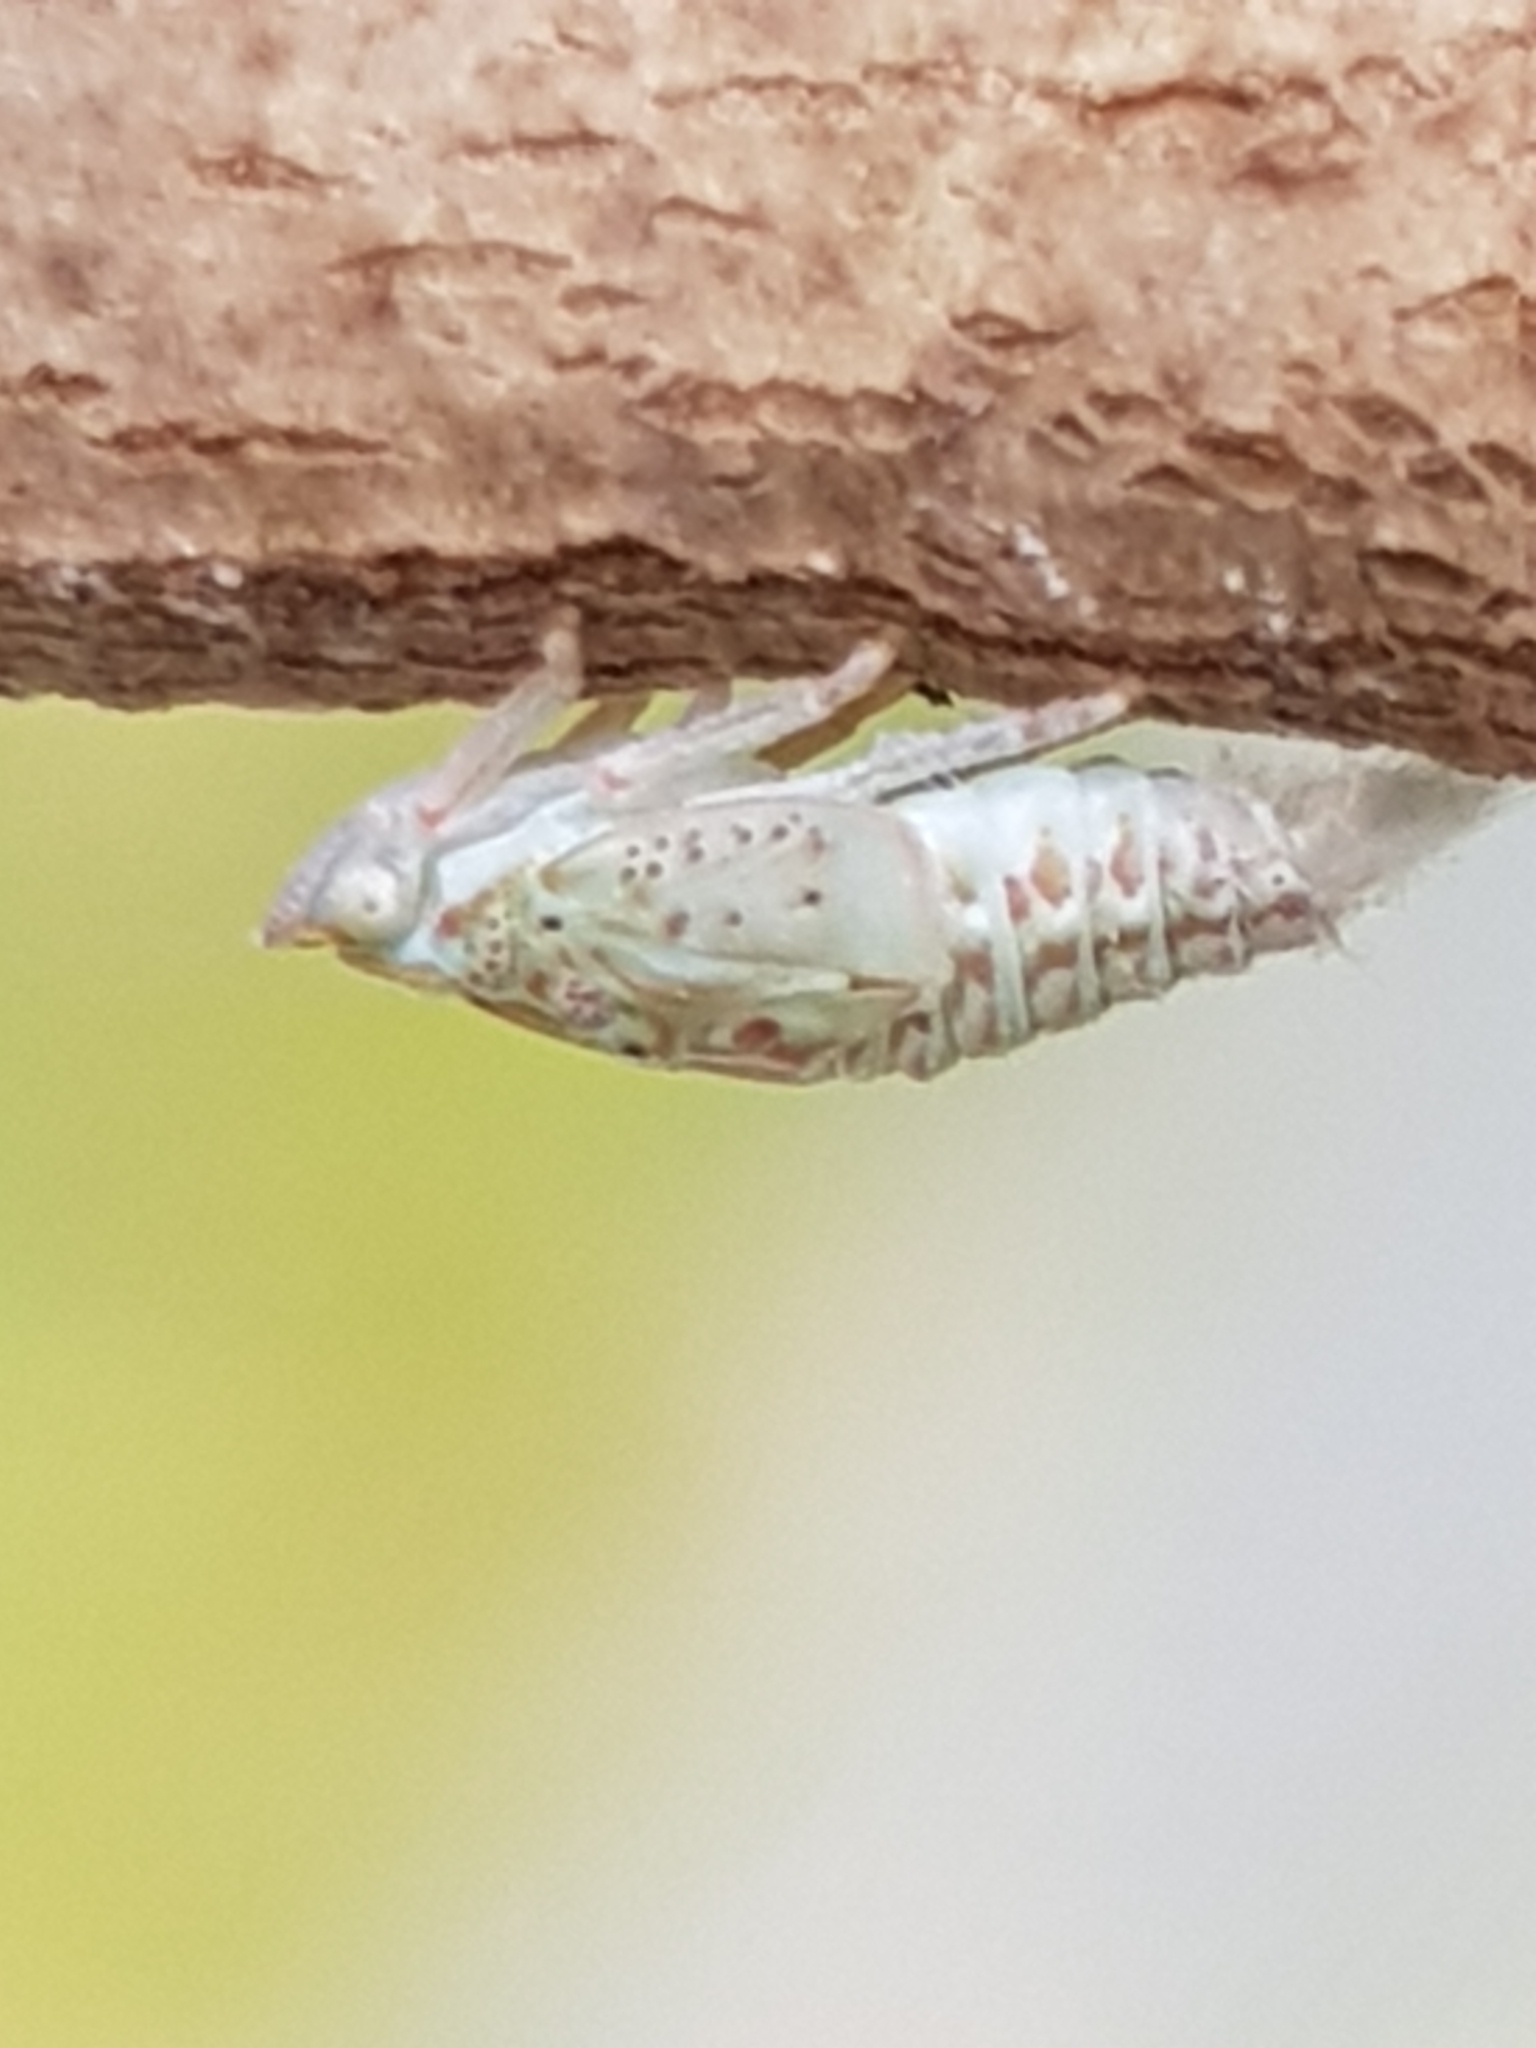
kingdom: Animalia
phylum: Arthropoda
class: Insecta
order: Hemiptera
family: Flatidae
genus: Siphanta
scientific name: Siphanta acuta
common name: Torpedo bug
